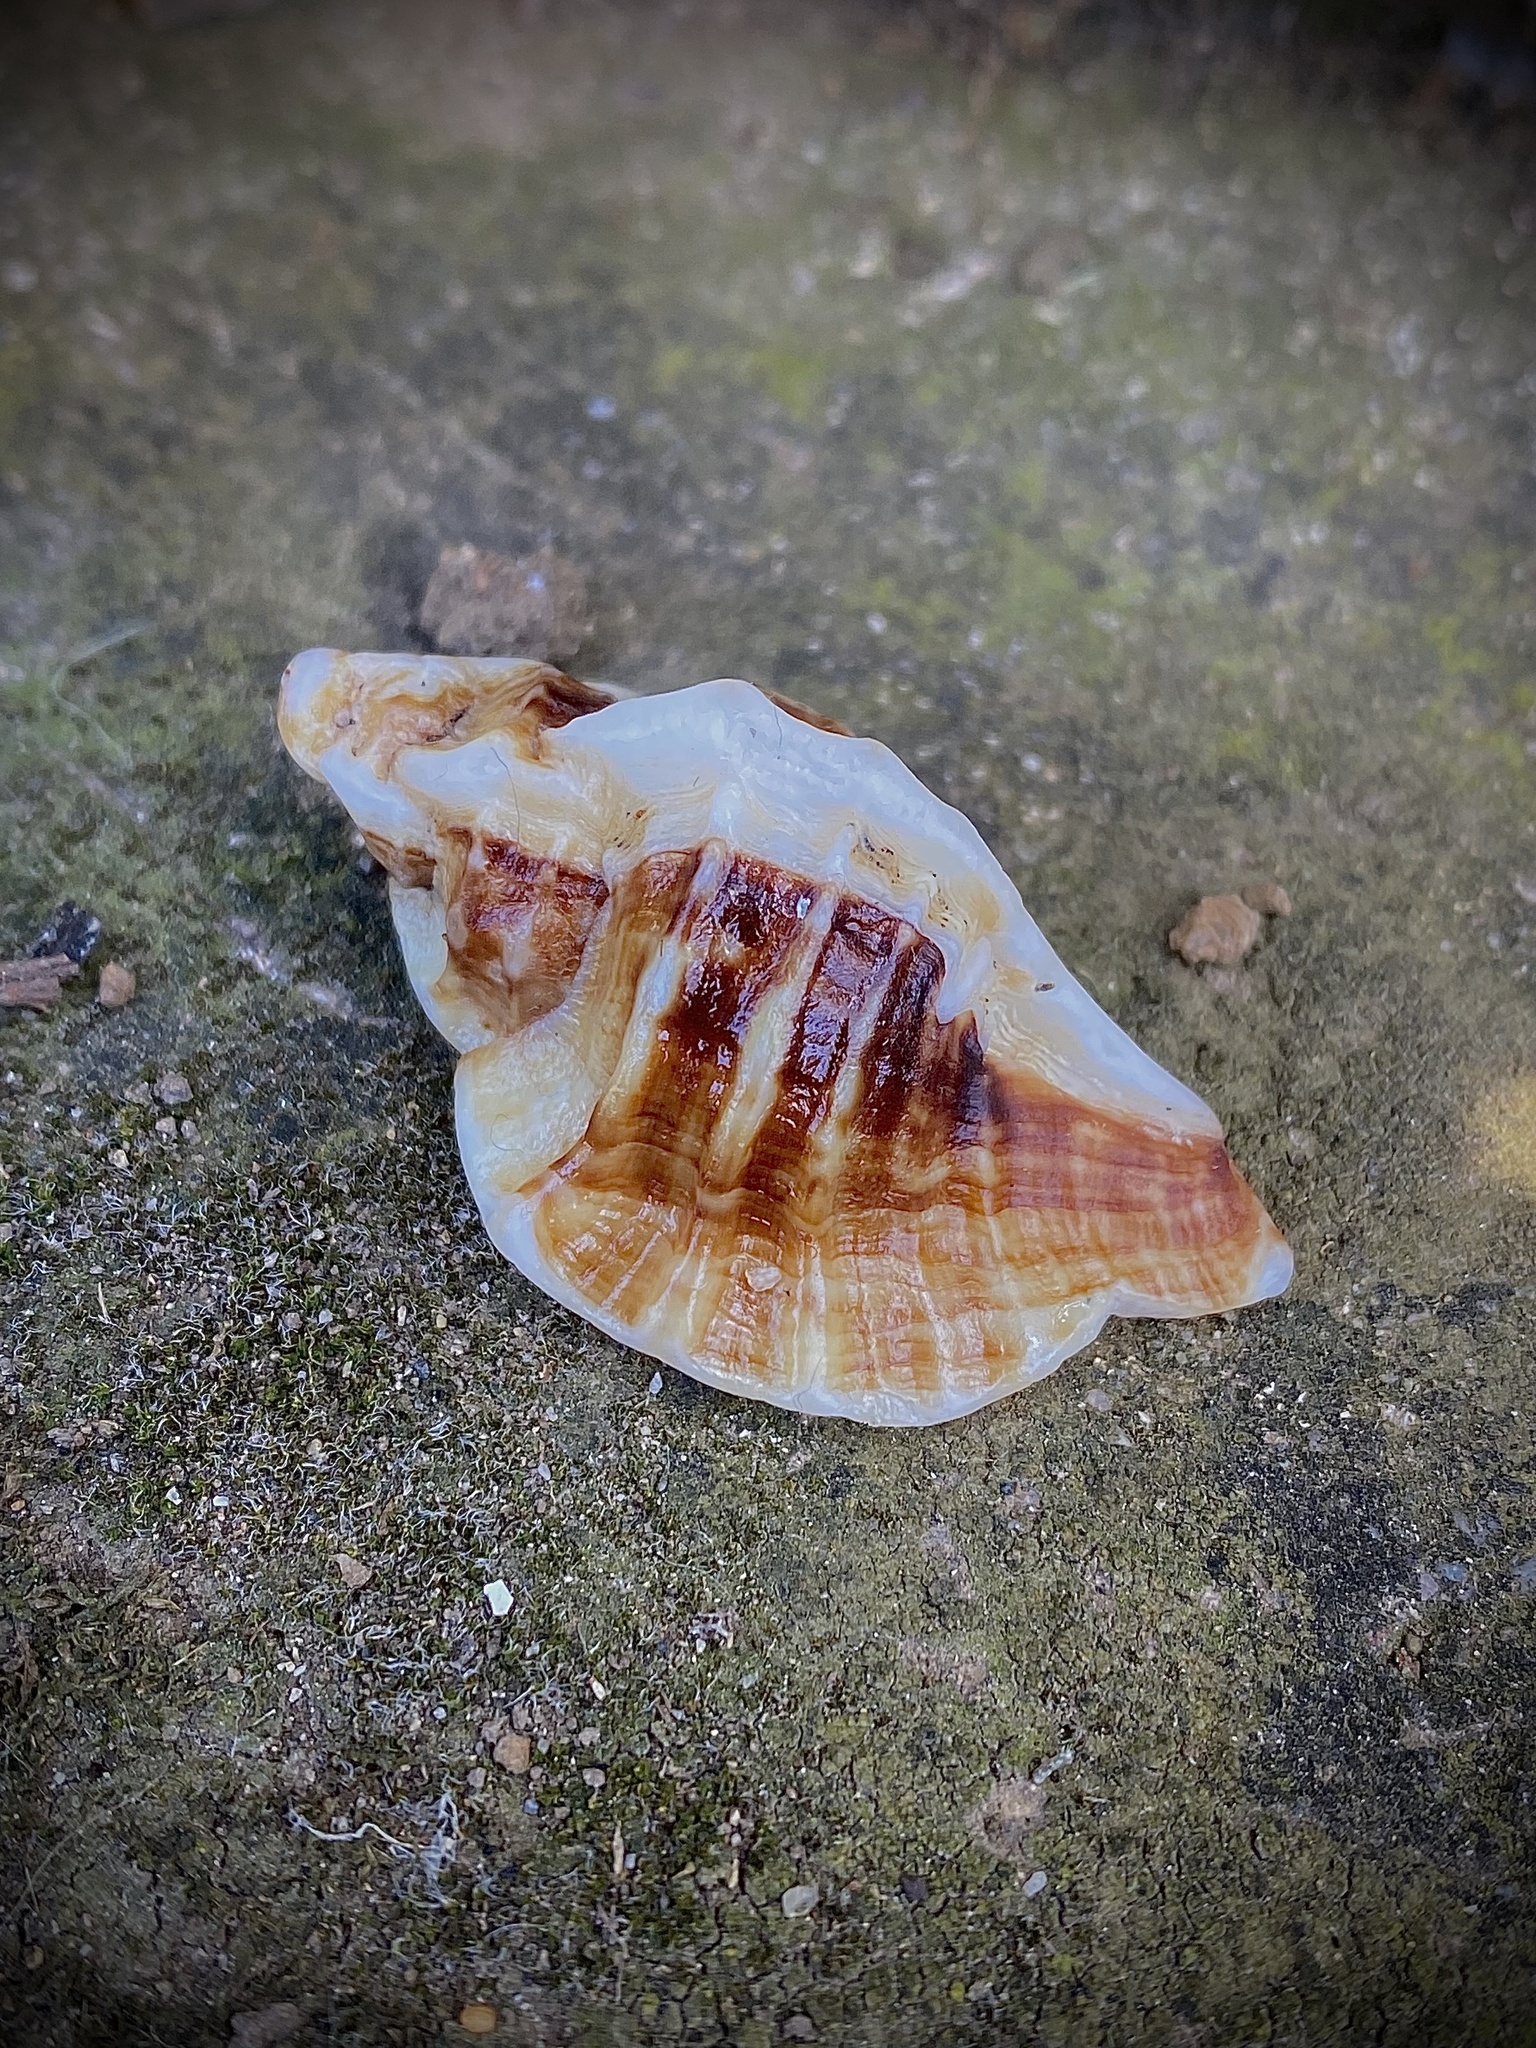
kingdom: Animalia
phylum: Mollusca
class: Gastropoda
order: Neogastropoda
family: Muricidae
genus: Ceratostoma
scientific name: Ceratostoma foliatum
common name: Foliate thorn purpura
